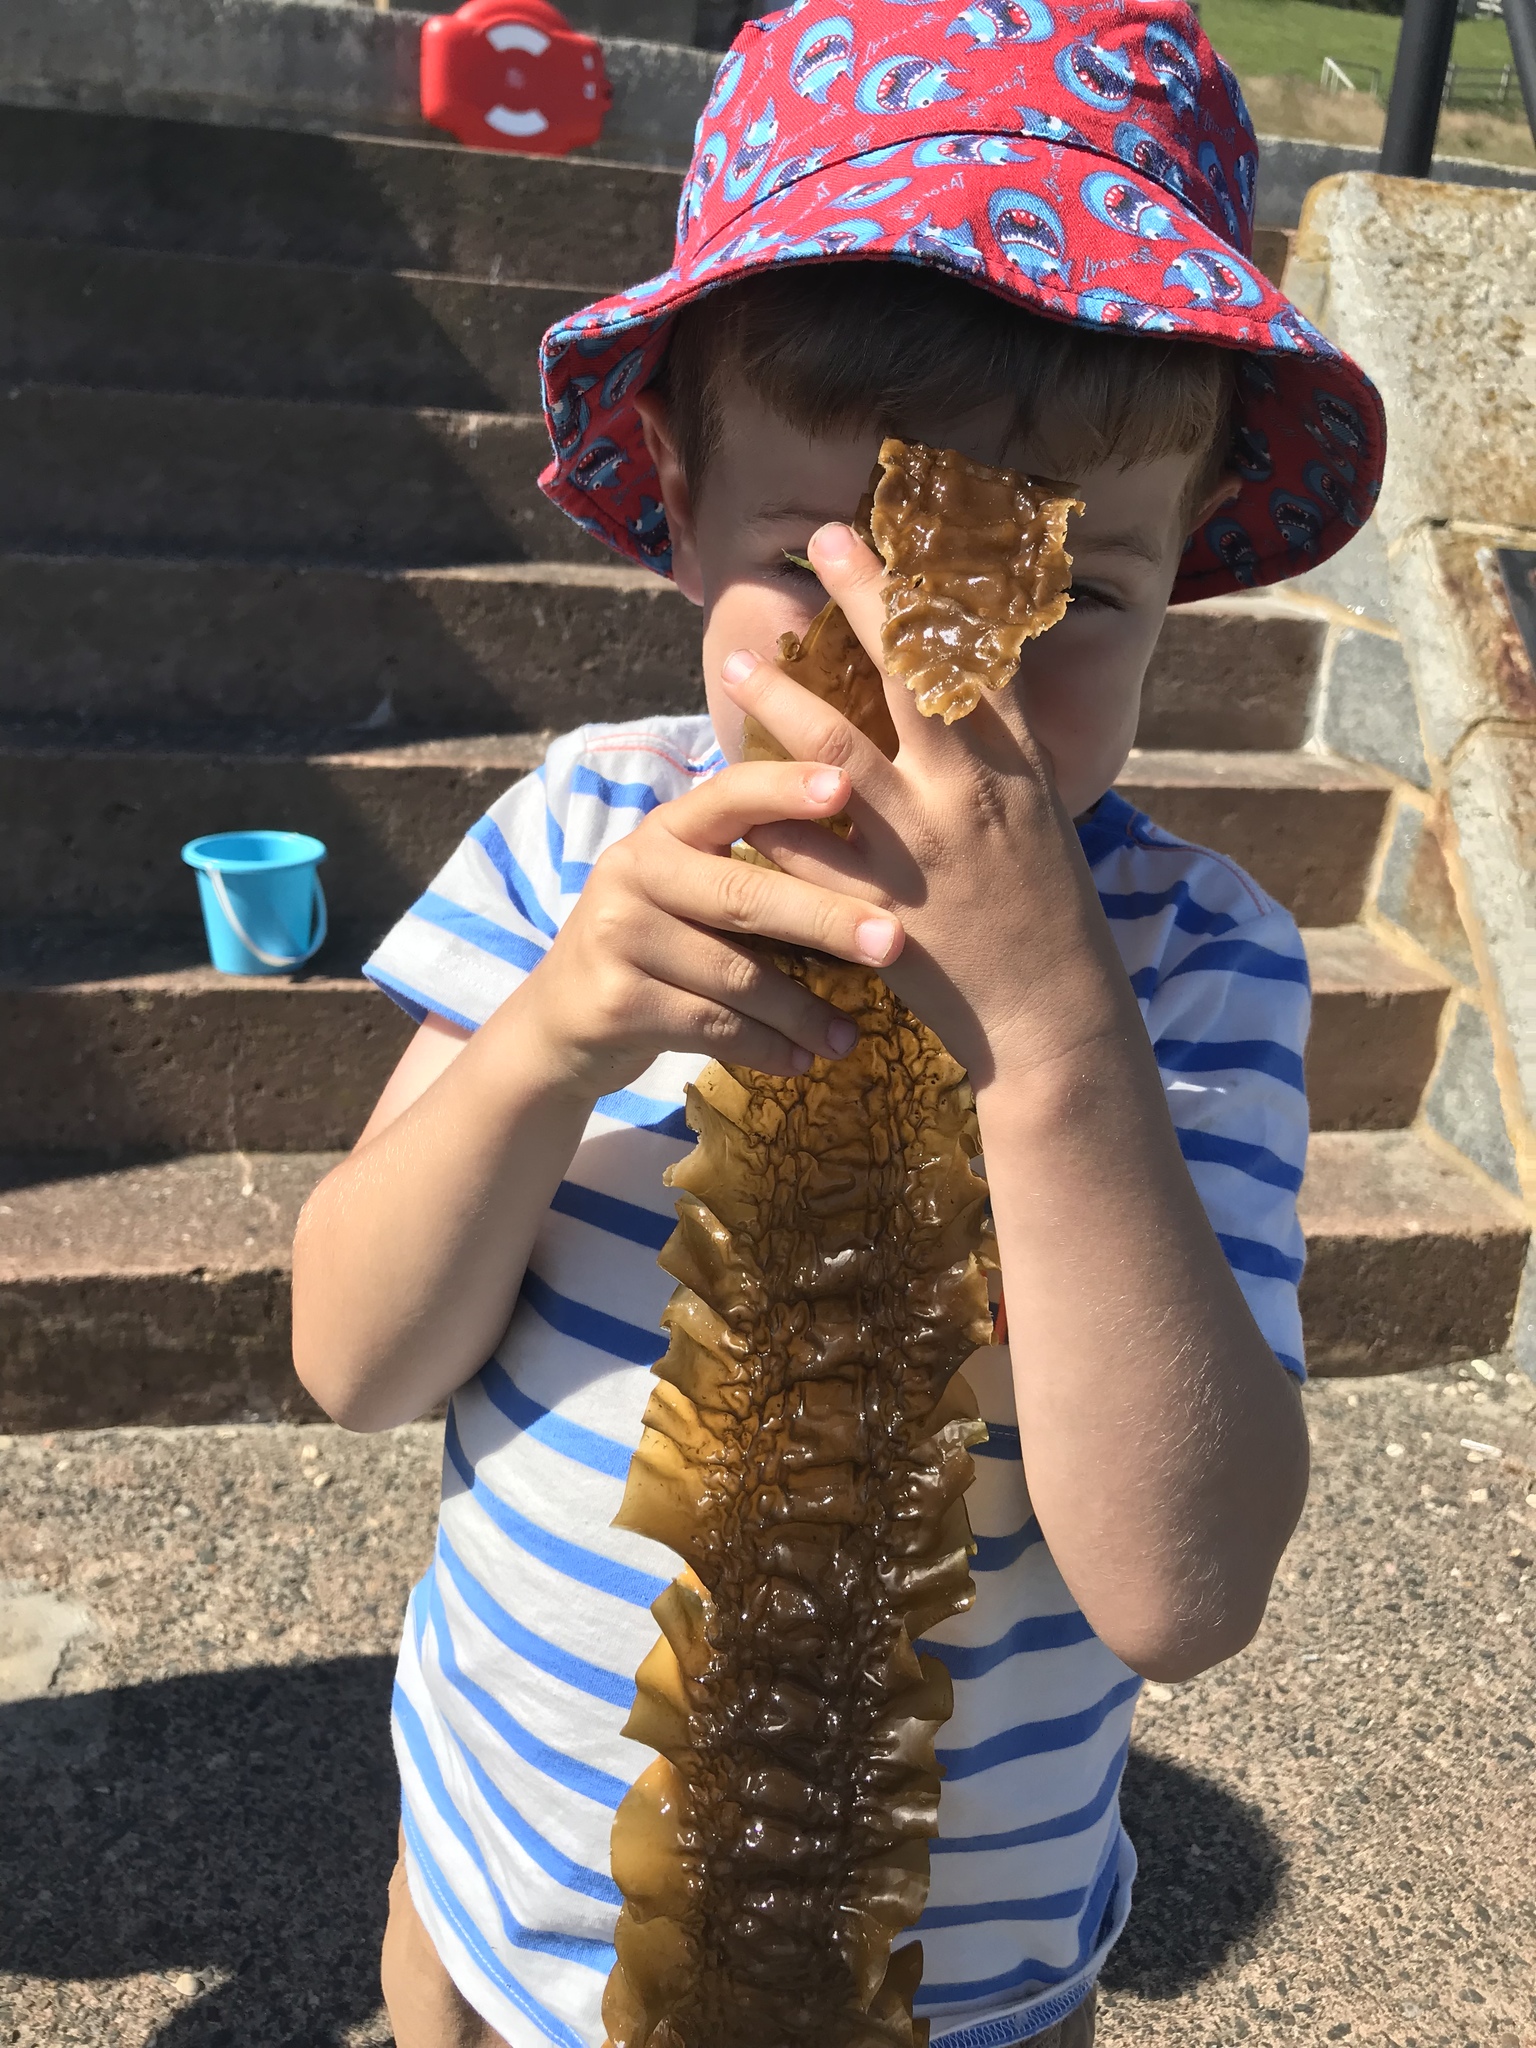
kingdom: Chromista
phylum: Ochrophyta
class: Phaeophyceae
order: Laminariales
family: Laminariaceae
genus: Saccharina
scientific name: Saccharina latissima
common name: Poor man's weather glass
